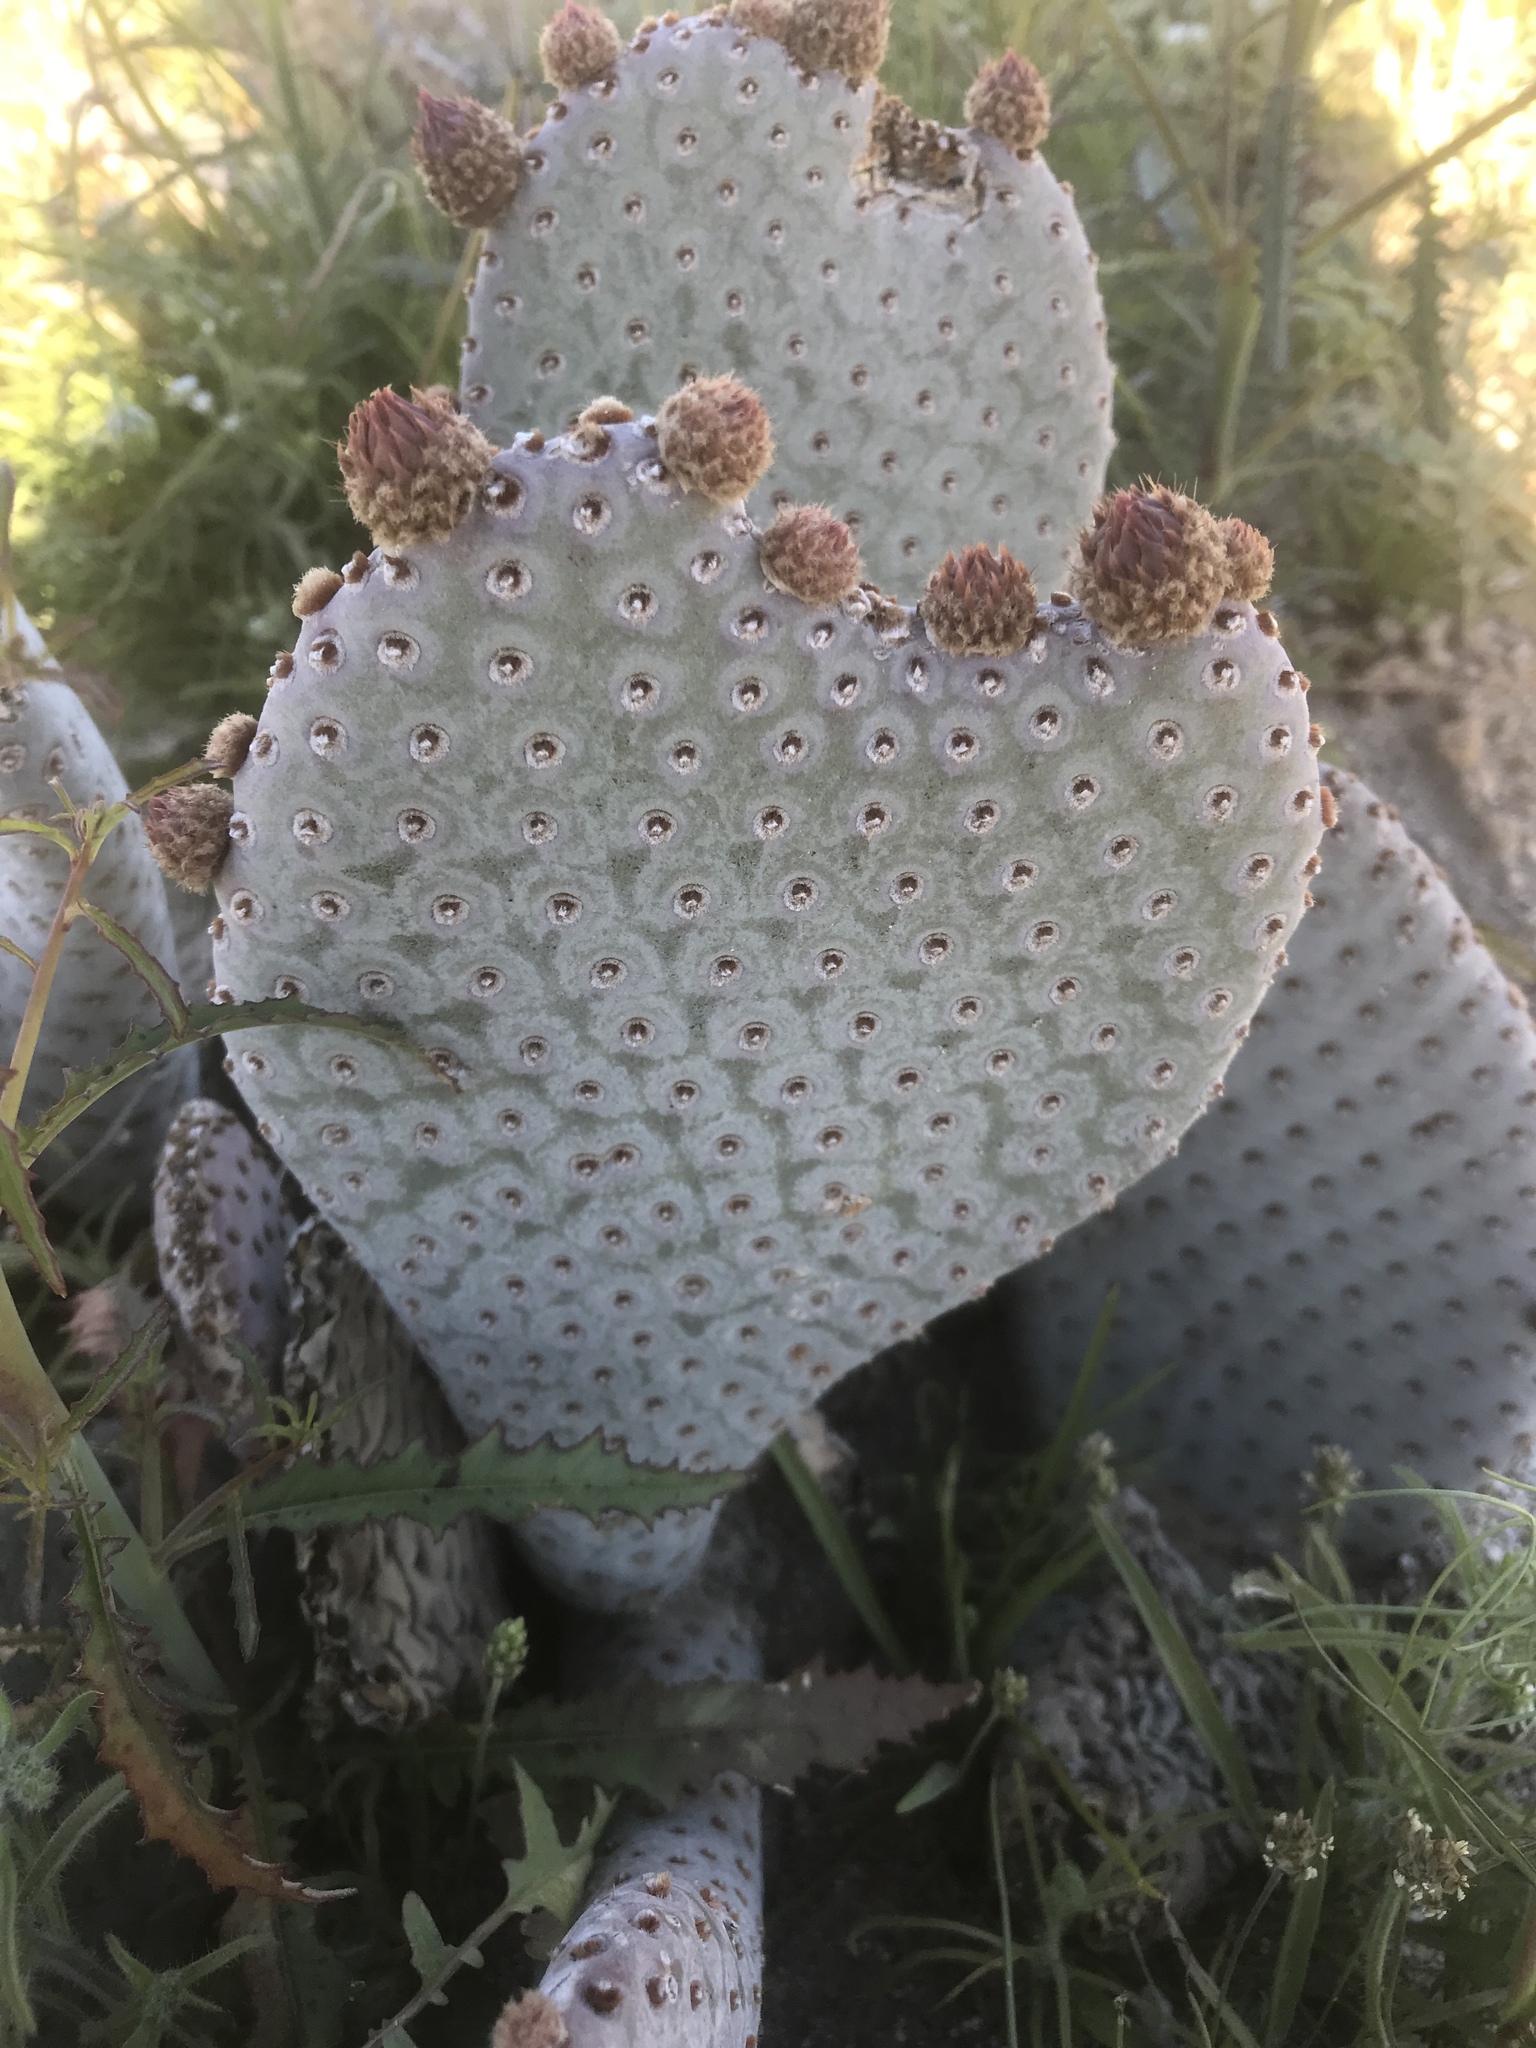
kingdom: Plantae
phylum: Tracheophyta
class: Magnoliopsida
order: Caryophyllales
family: Cactaceae
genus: Opuntia
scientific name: Opuntia basilaris
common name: Beavertail prickly-pear
